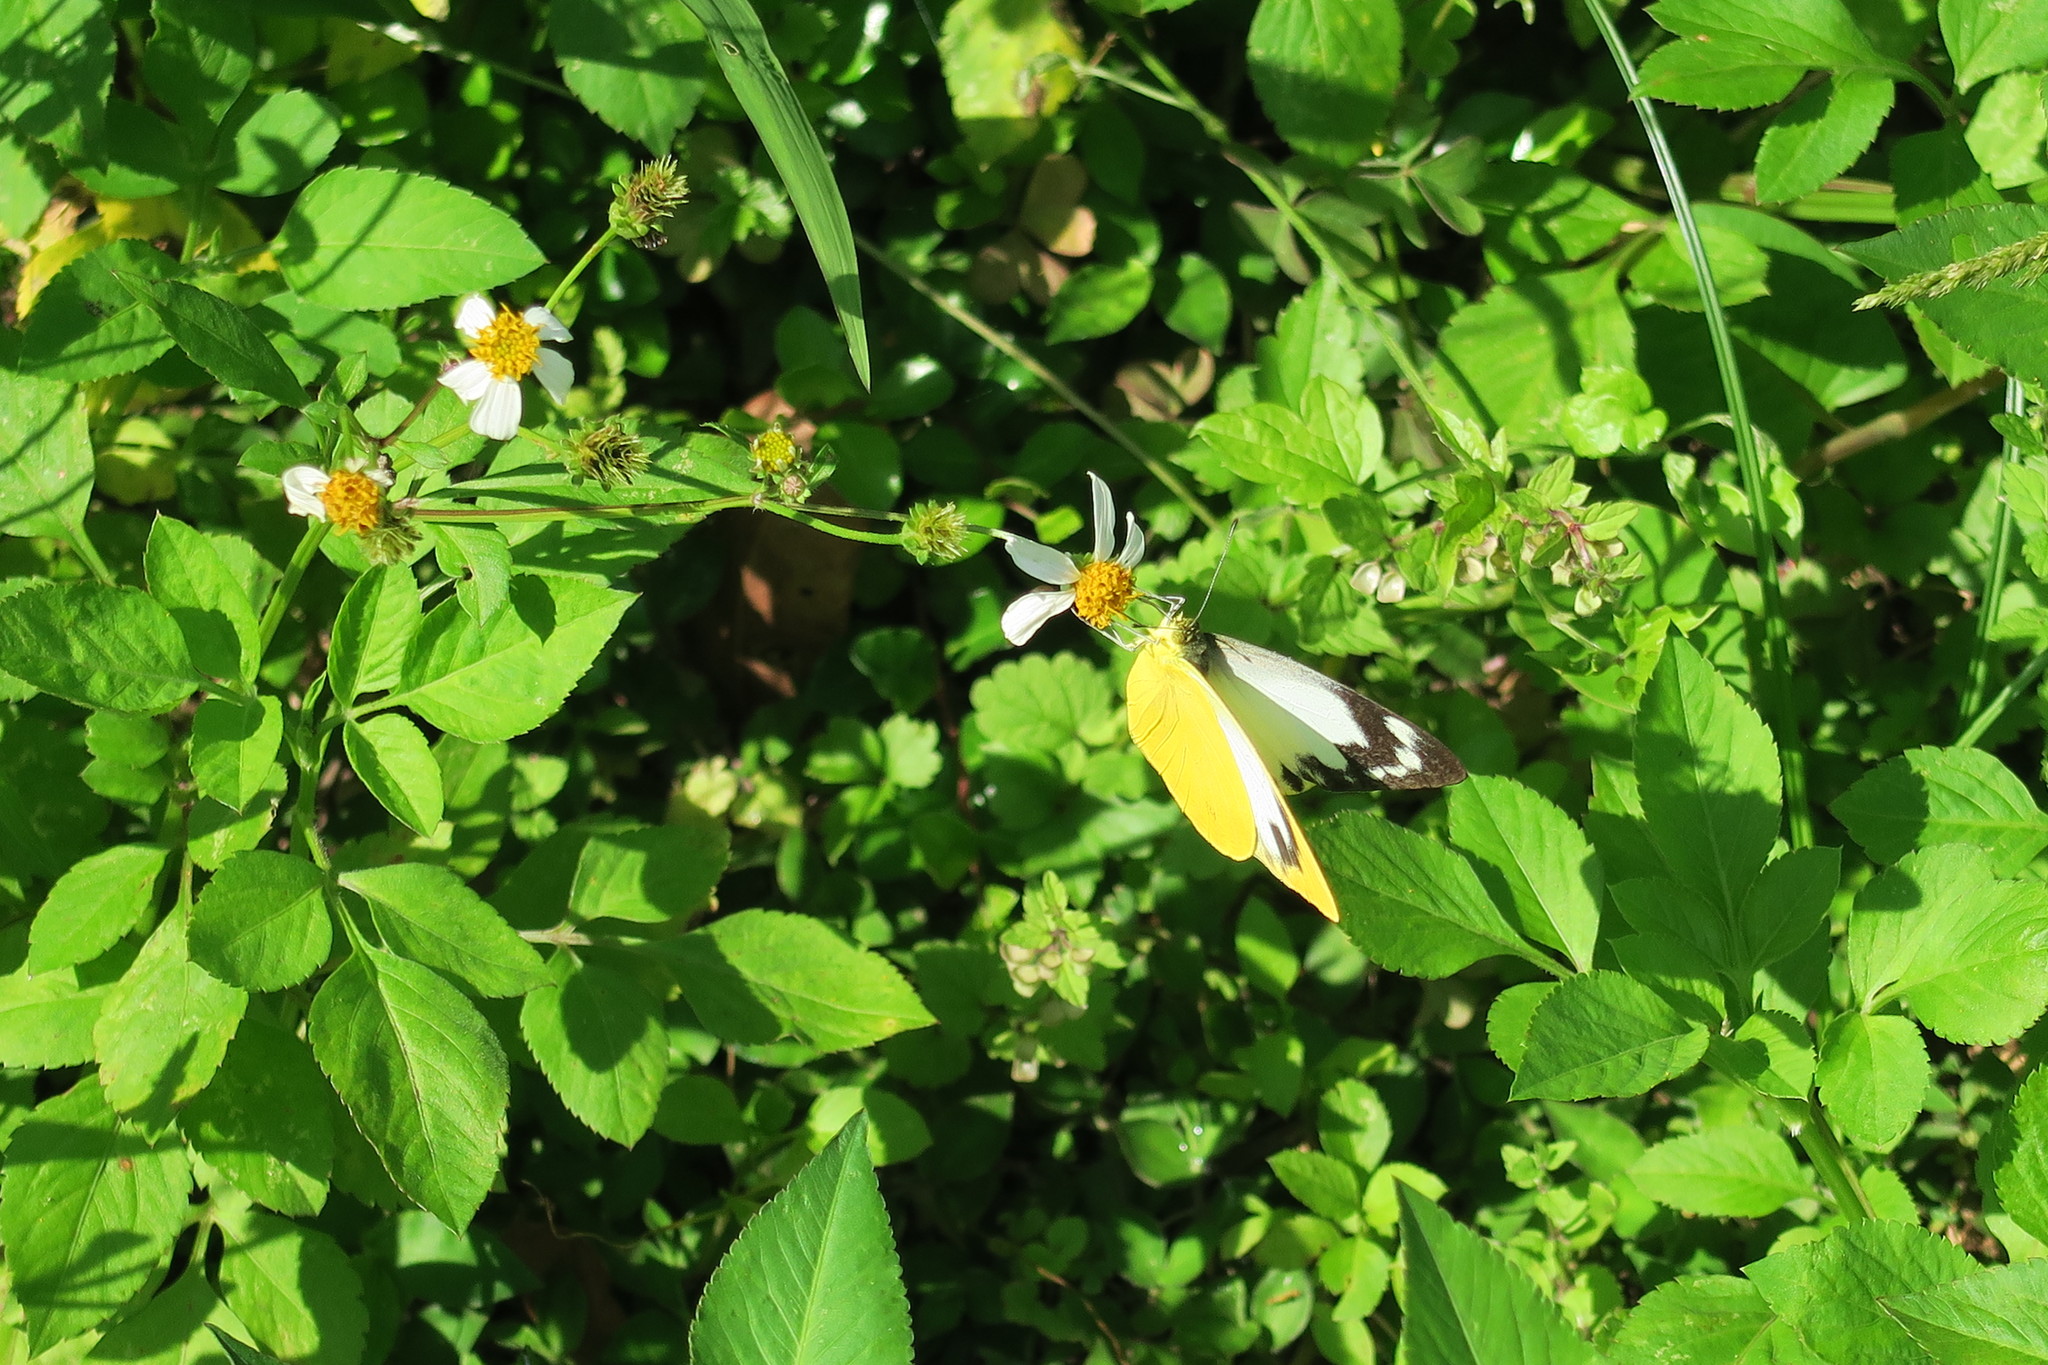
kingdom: Animalia
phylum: Arthropoda
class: Insecta
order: Lepidoptera
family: Pieridae
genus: Appias
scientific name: Appias paulina
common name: Ceylon lesser albatross
